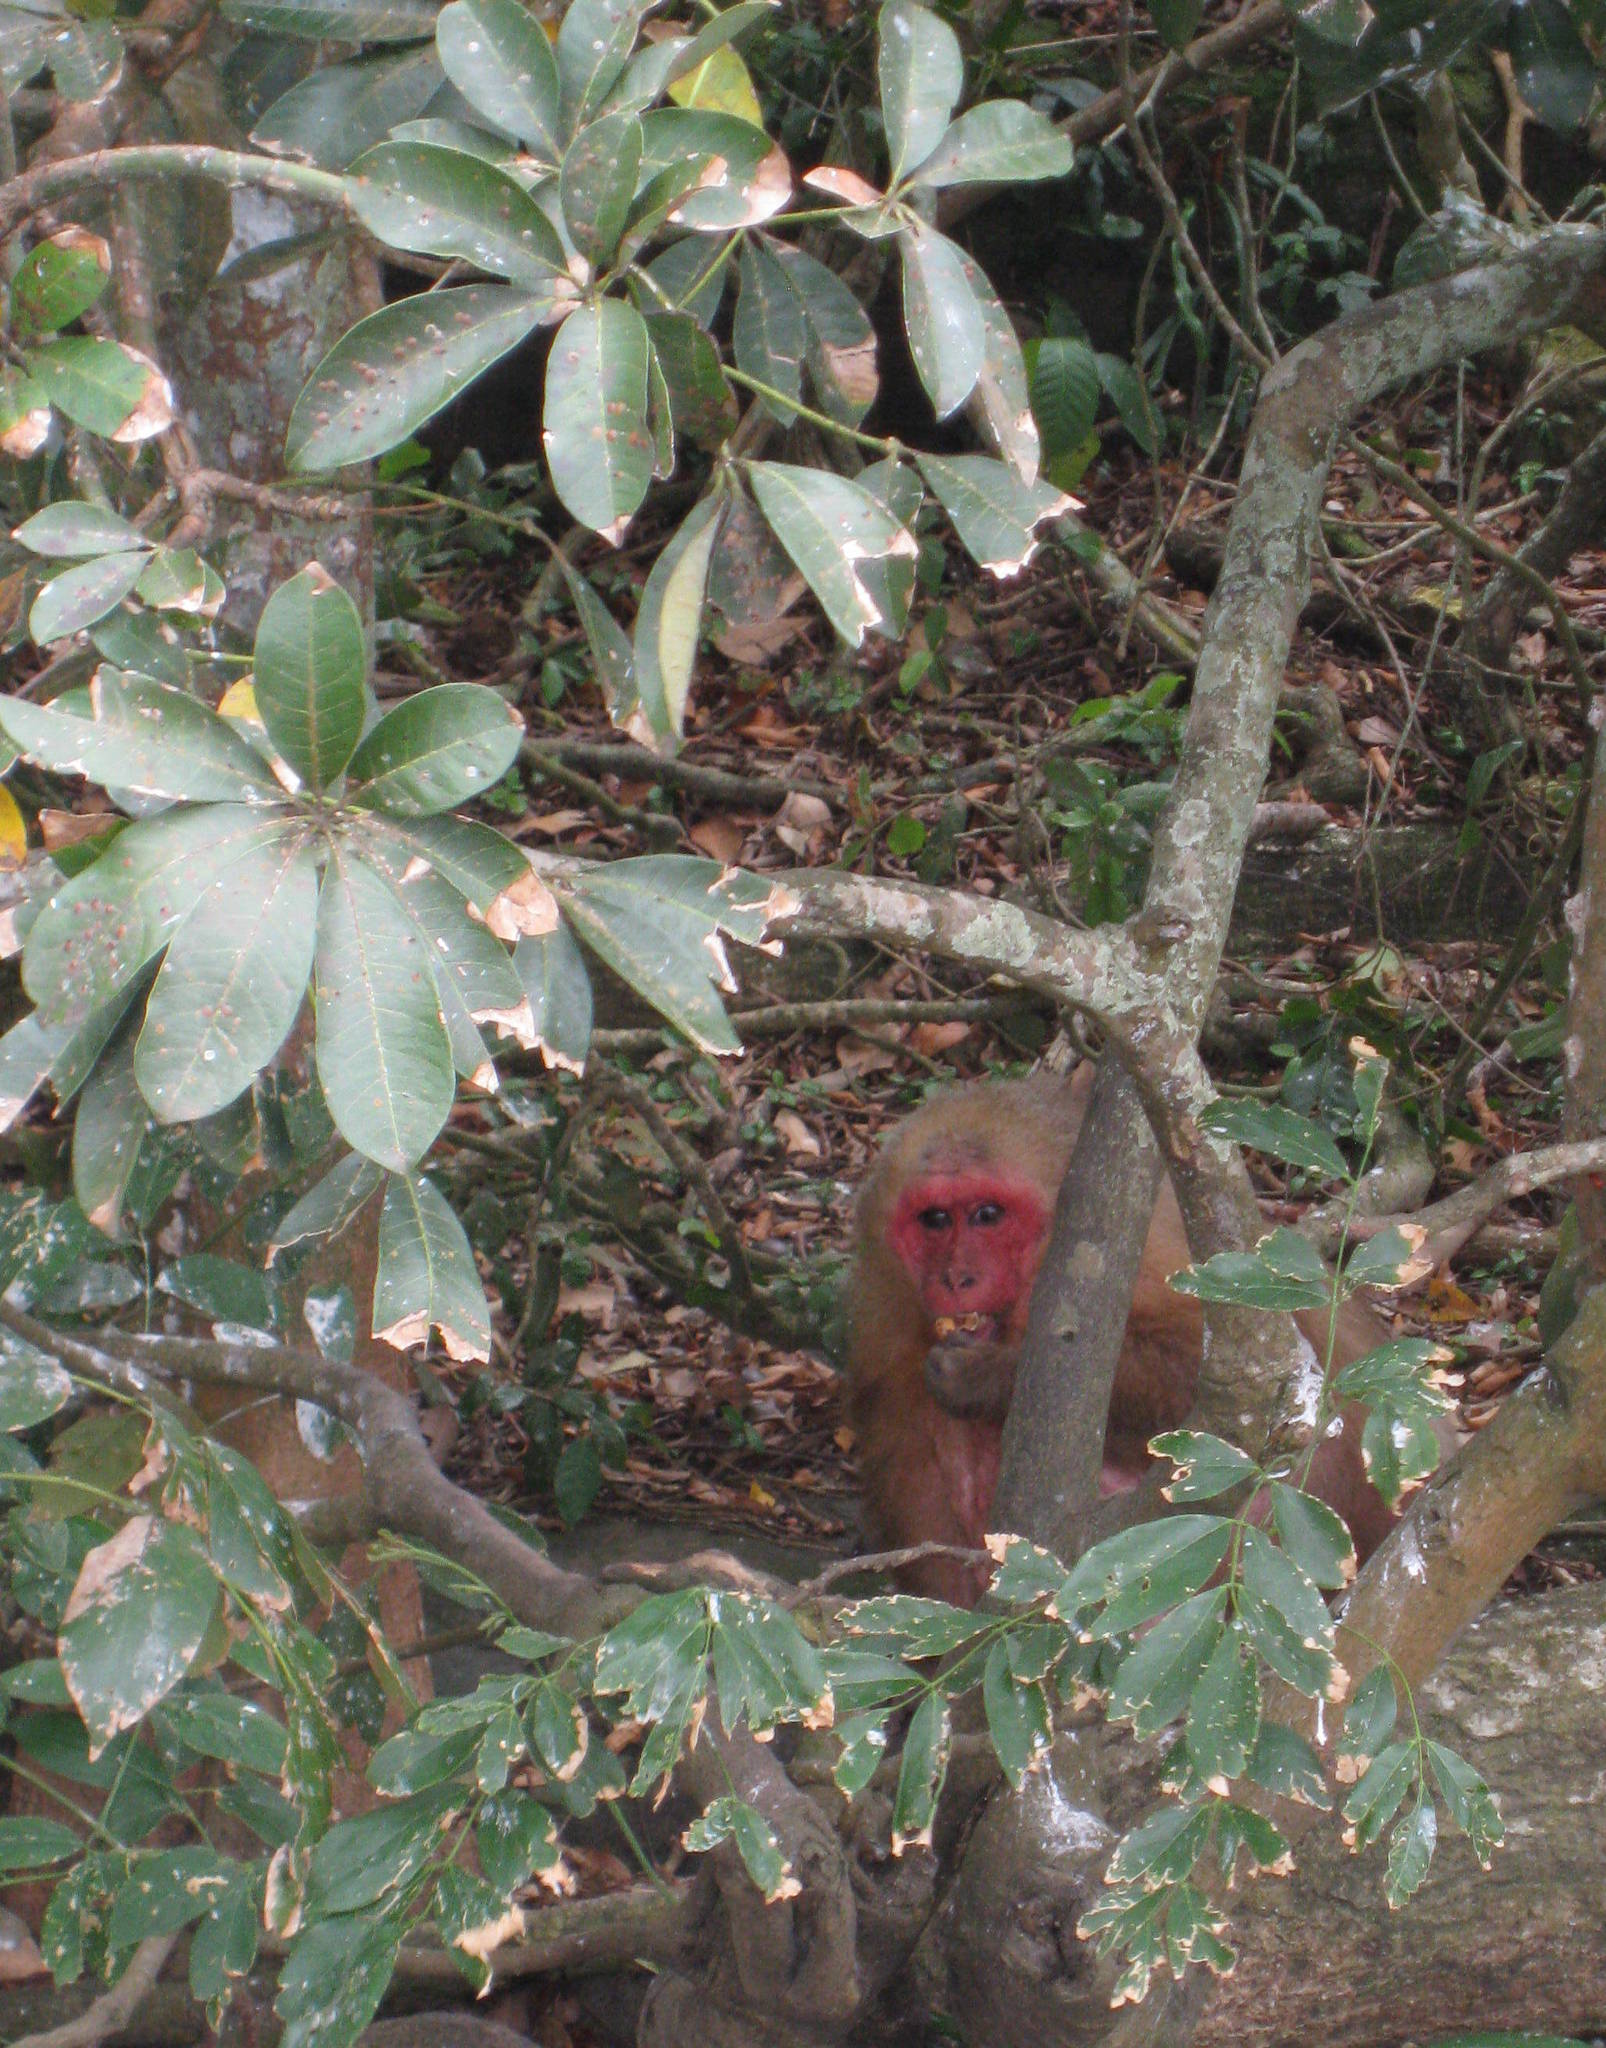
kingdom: Plantae
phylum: Tracheophyta
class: Magnoliopsida
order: Malvales
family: Malvaceae
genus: Pachira
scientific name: Pachira aquatica
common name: Provision-tree
